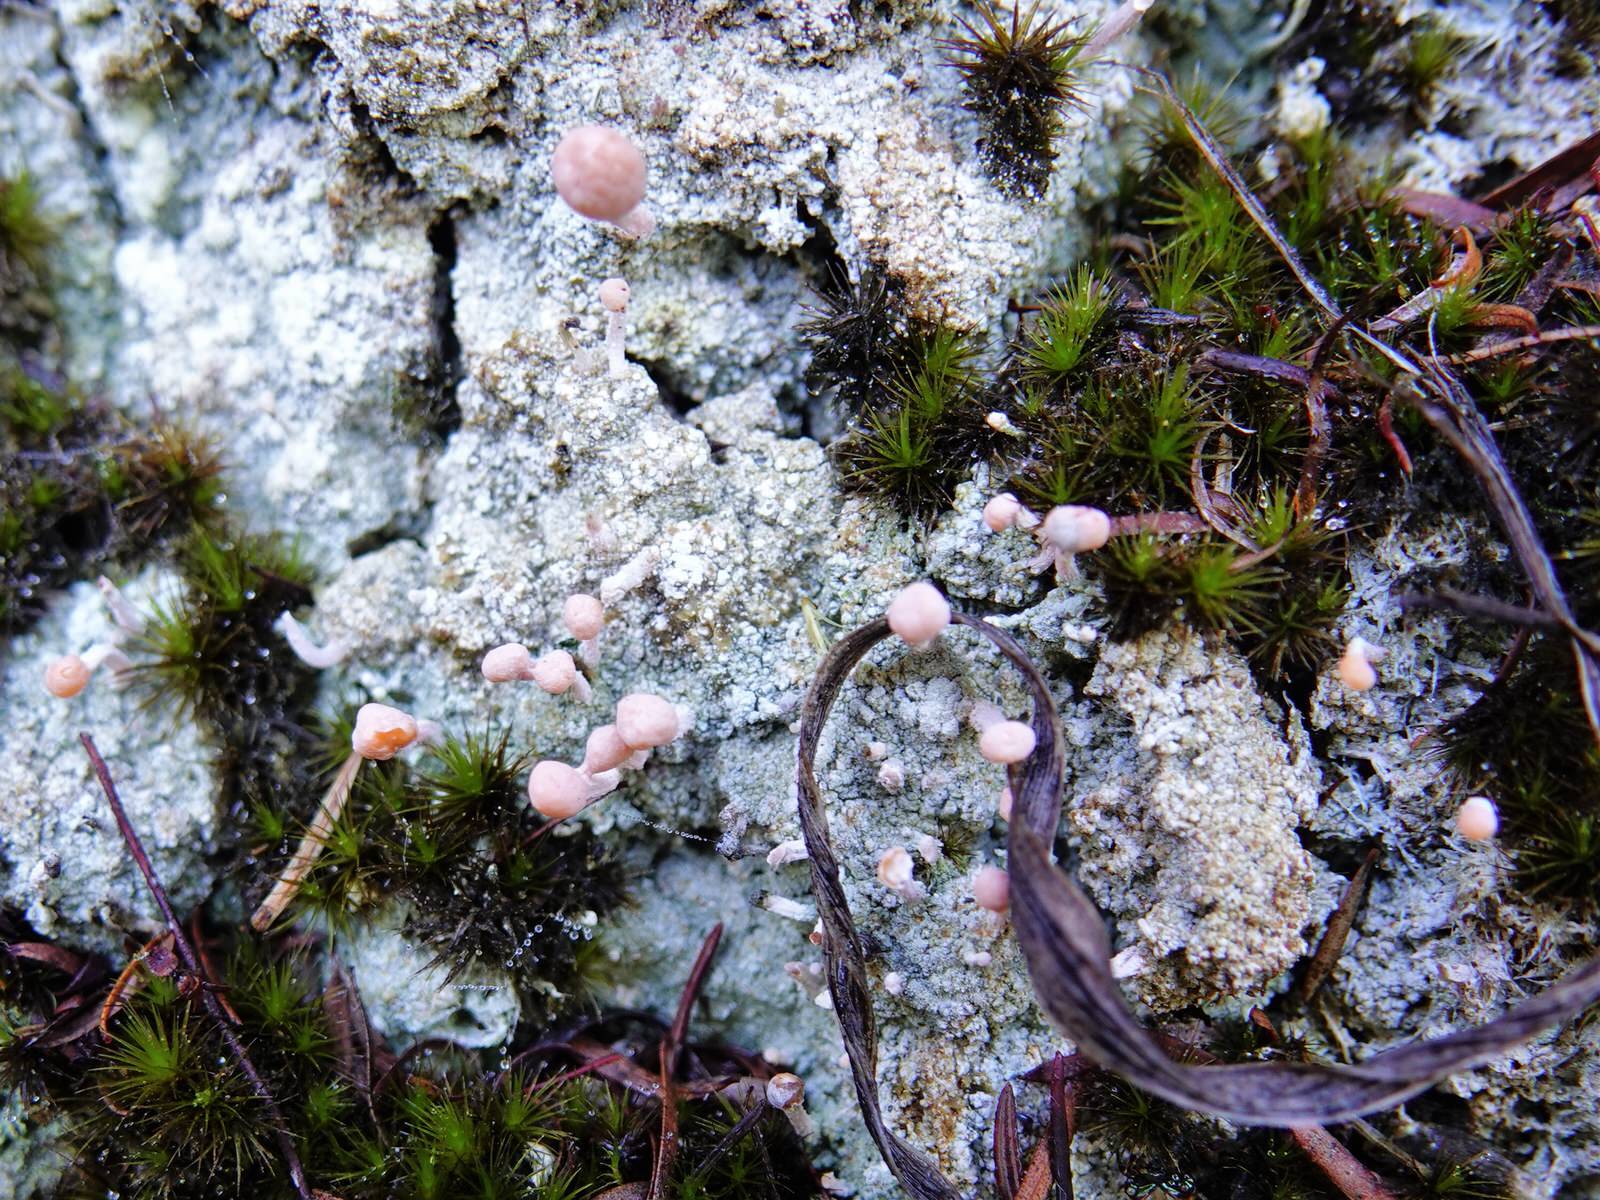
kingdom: Fungi
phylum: Ascomycota
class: Lecanoromycetes
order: Pertusariales
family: Icmadophilaceae
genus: Dibaeis
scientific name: Dibaeis arcuata
